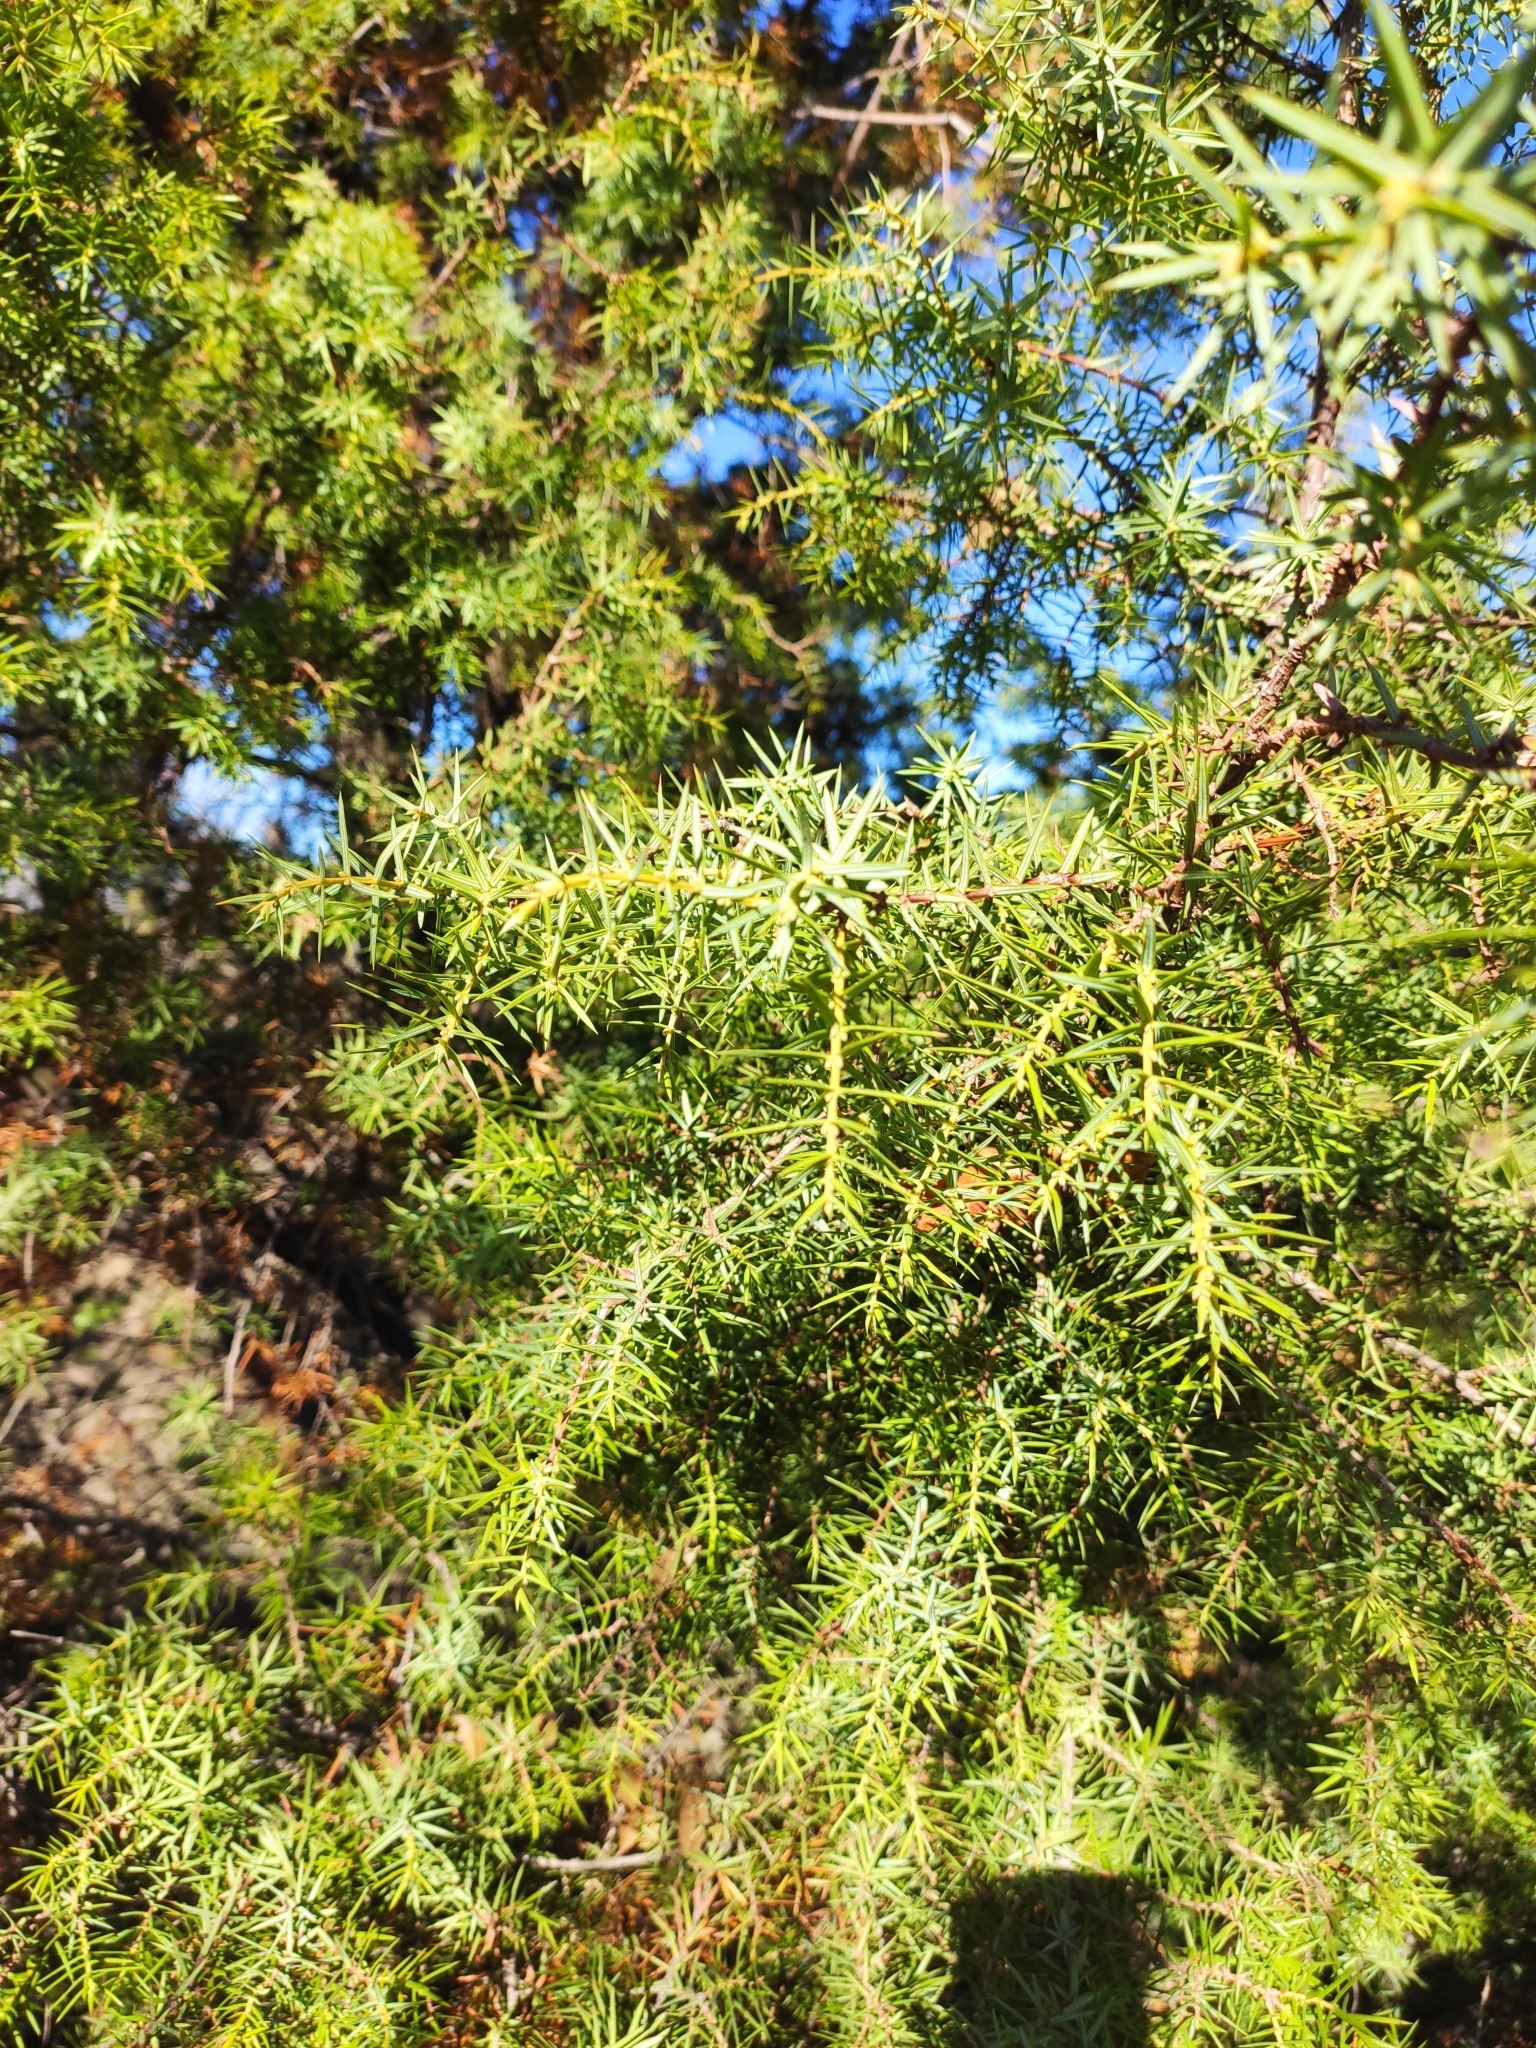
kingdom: Plantae
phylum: Tracheophyta
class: Pinopsida
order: Pinales
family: Cupressaceae
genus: Juniperus
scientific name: Juniperus oxycedrus
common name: Prickly juniper
